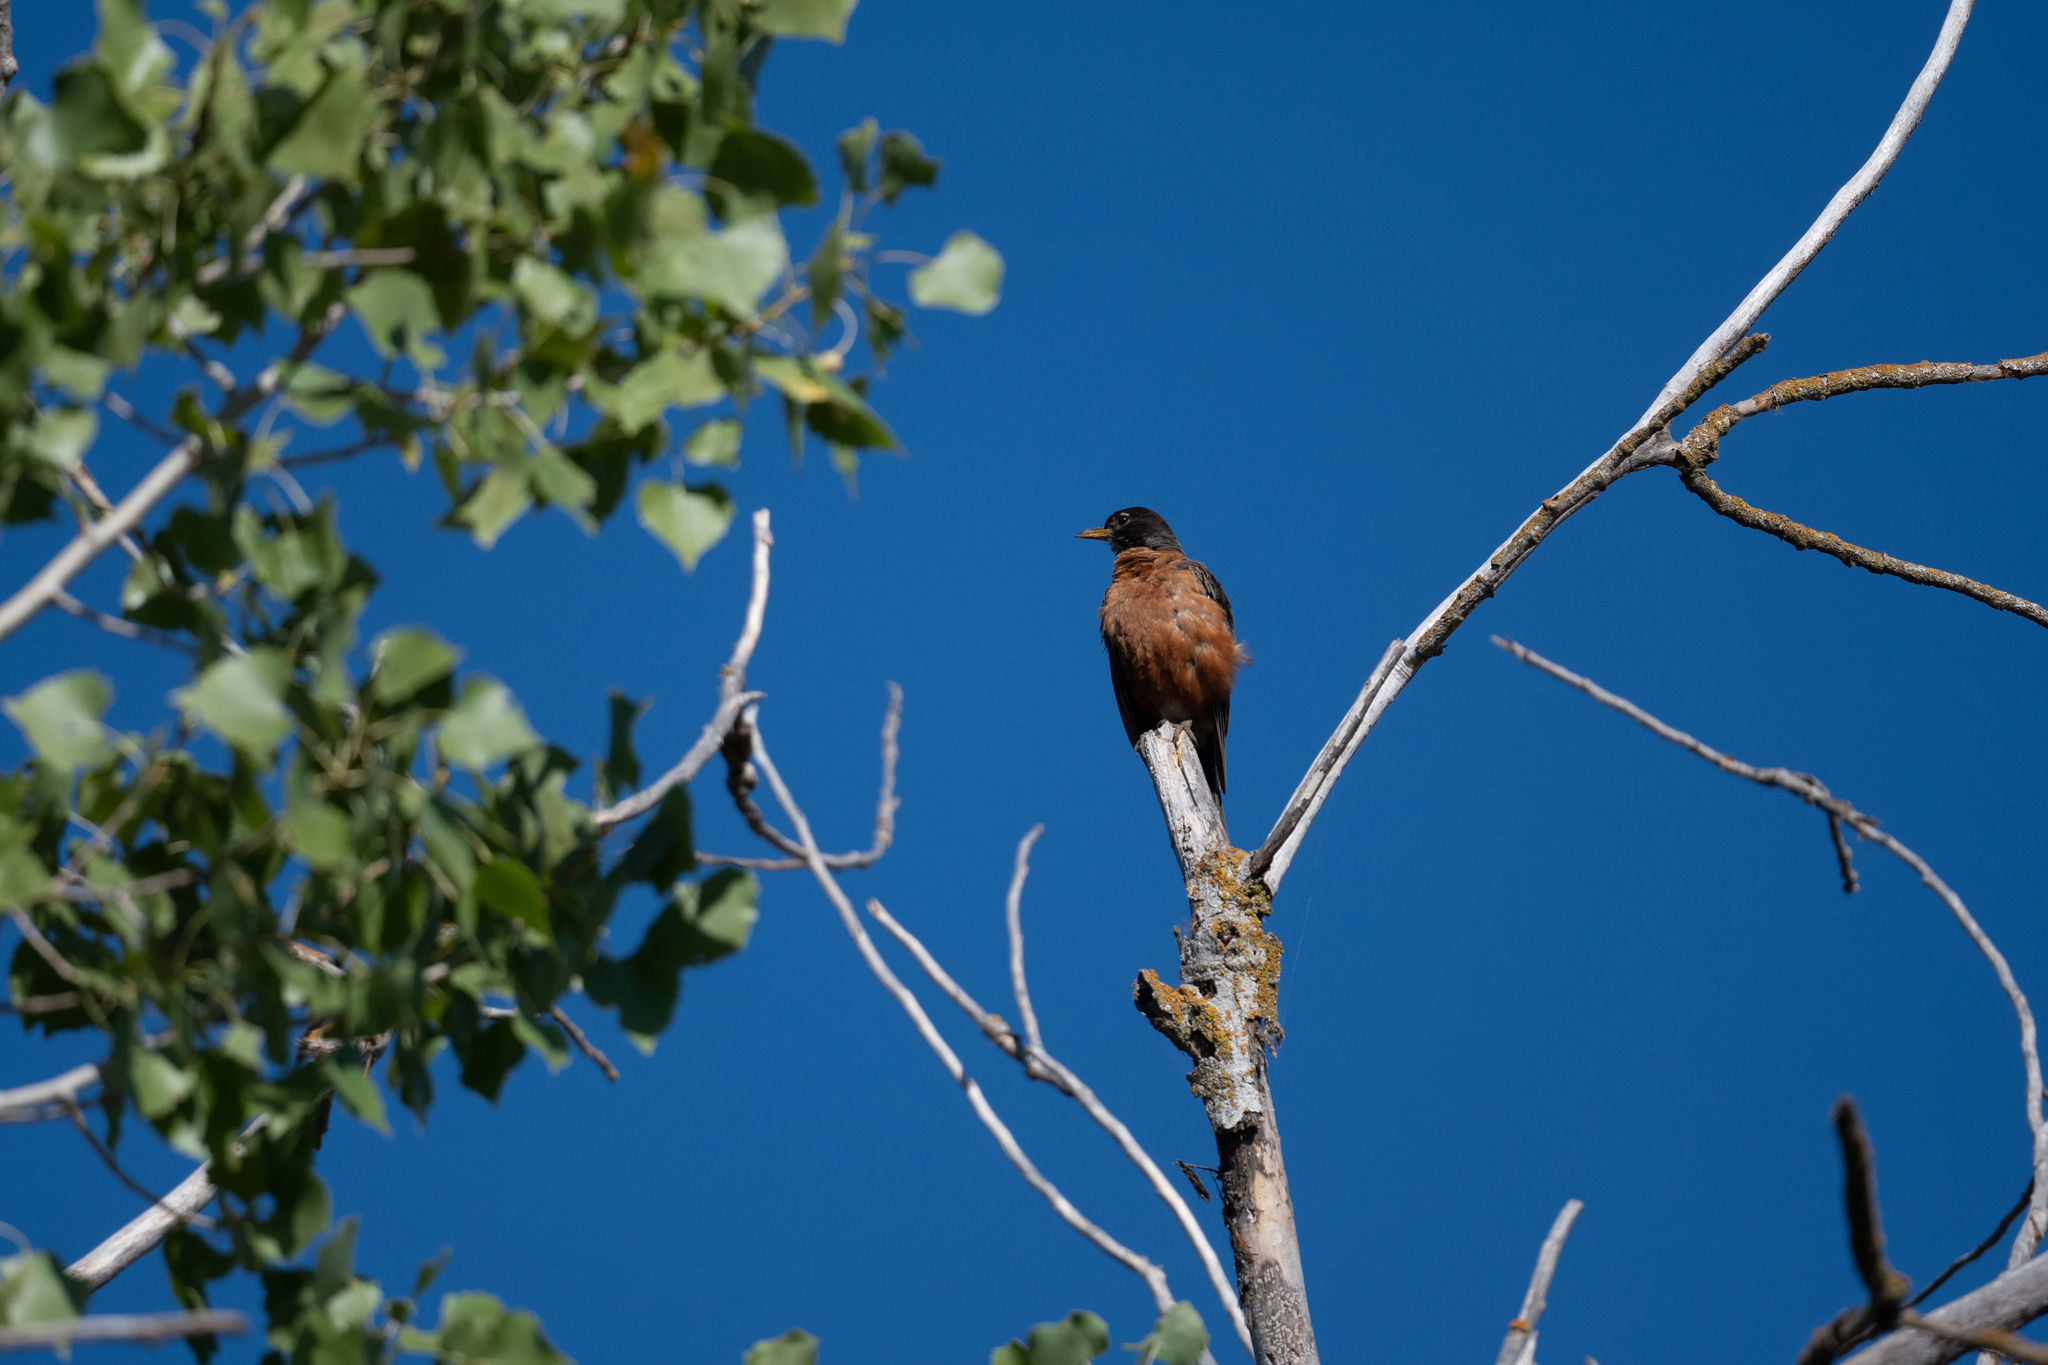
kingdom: Animalia
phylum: Chordata
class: Aves
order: Passeriformes
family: Turdidae
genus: Turdus
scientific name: Turdus migratorius
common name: American robin
